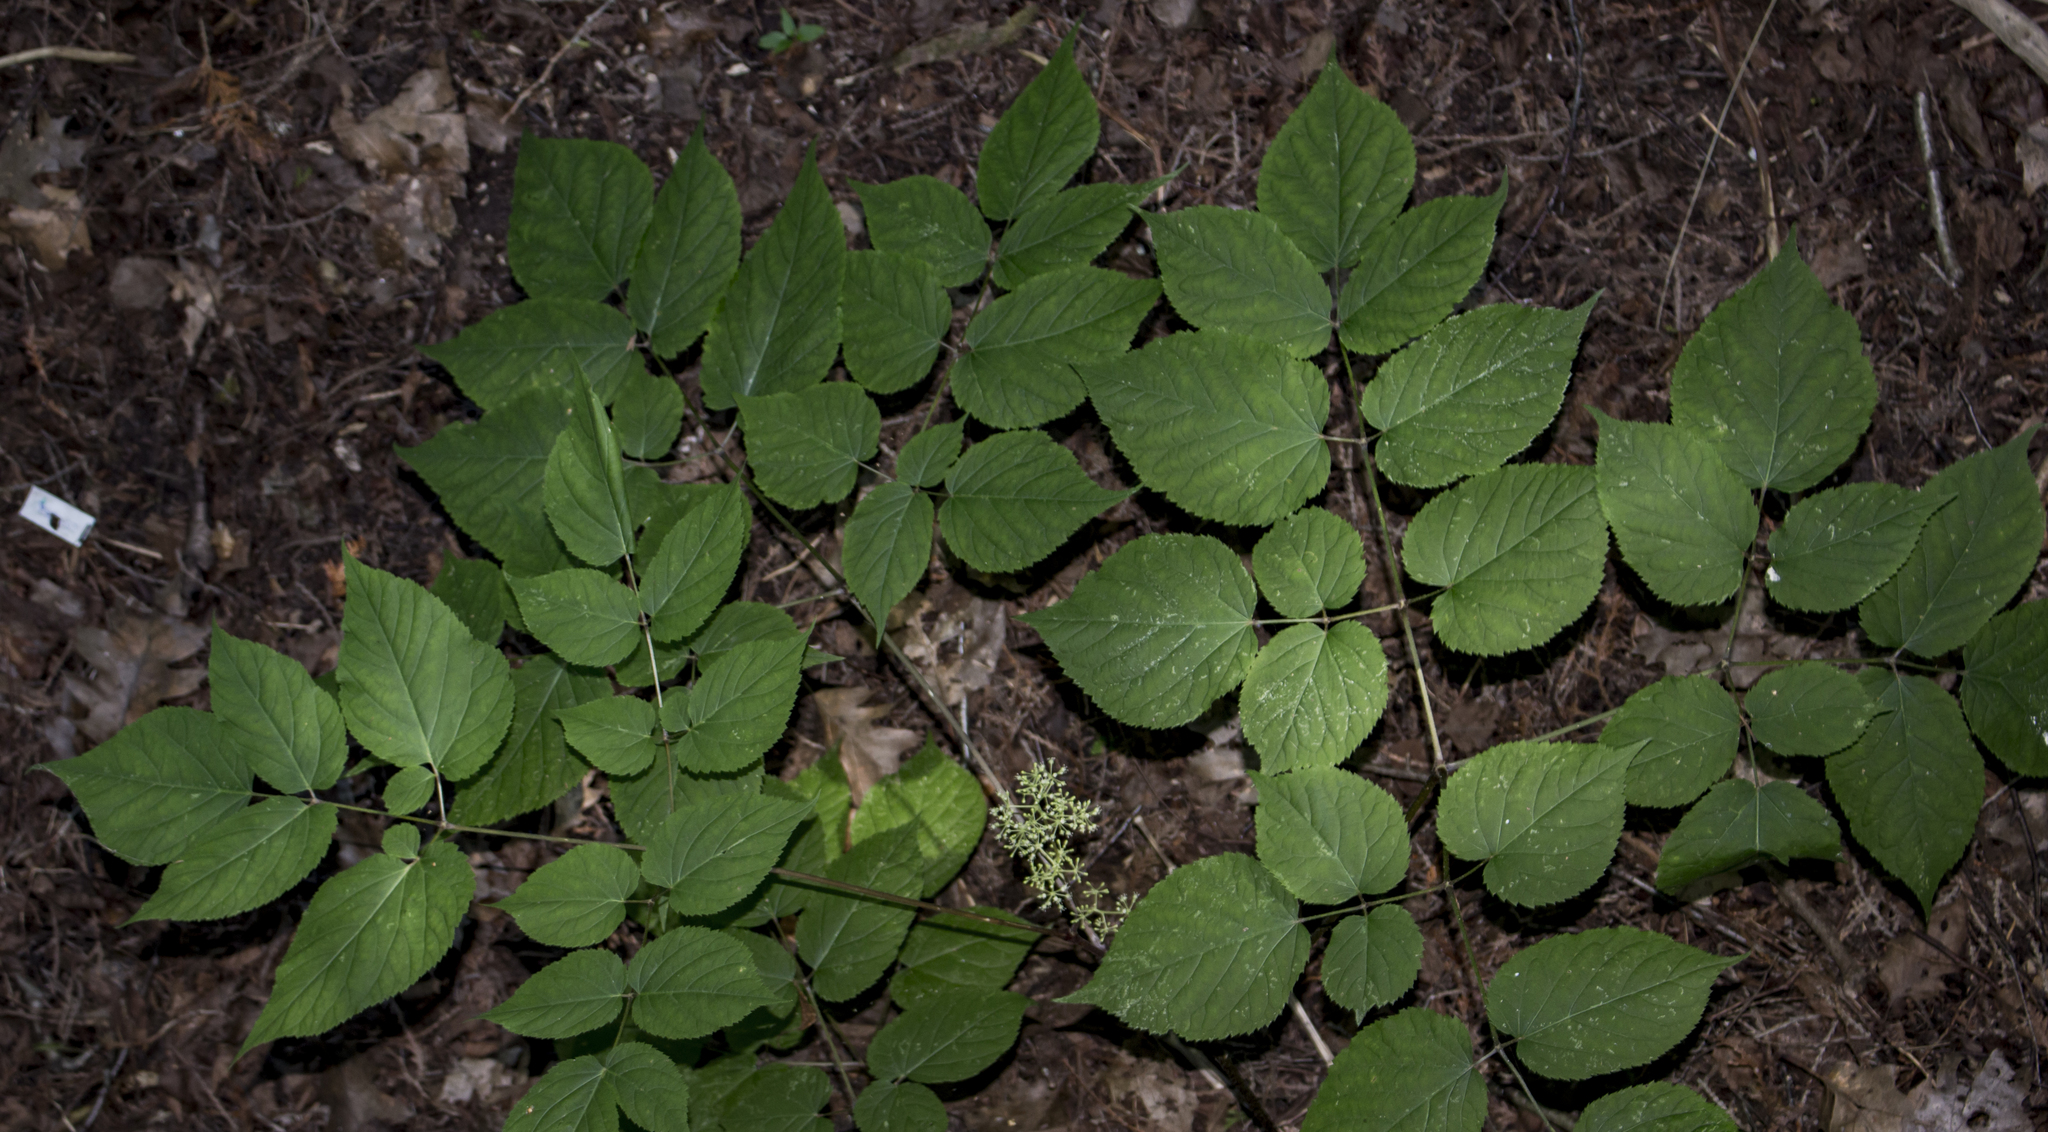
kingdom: Plantae
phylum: Tracheophyta
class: Magnoliopsida
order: Apiales
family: Araliaceae
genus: Aralia
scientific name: Aralia racemosa
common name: American-spikenard
